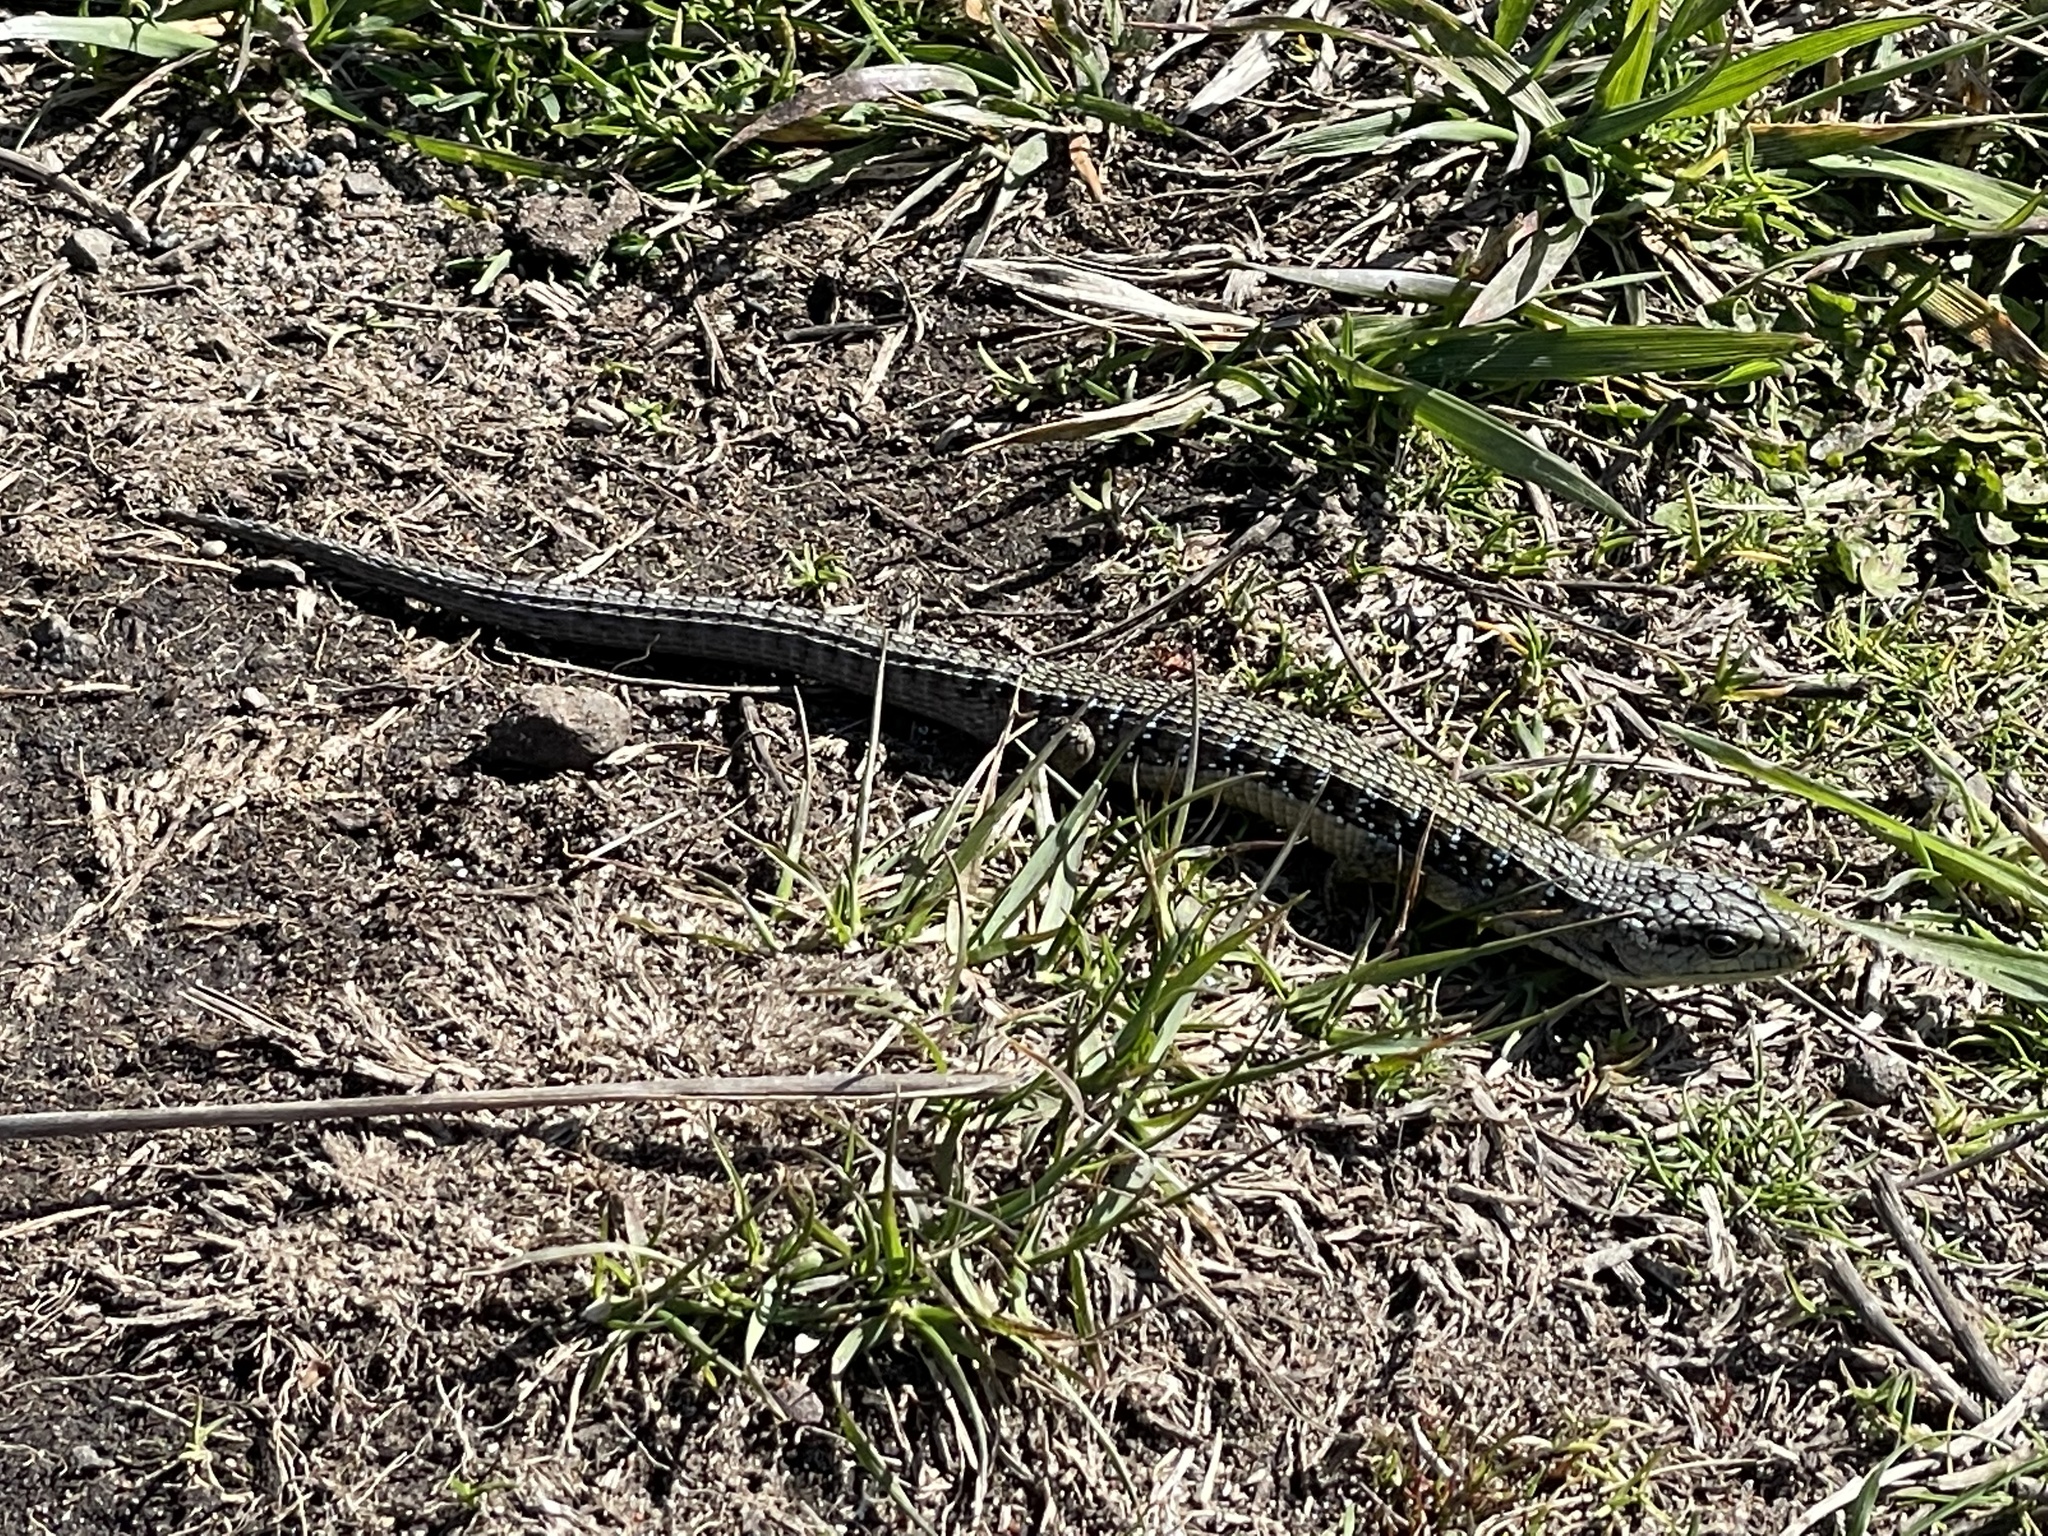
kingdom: Animalia
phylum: Chordata
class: Squamata
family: Anguidae
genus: Elgaria
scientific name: Elgaria coerulea
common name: Northern alligator lizard
